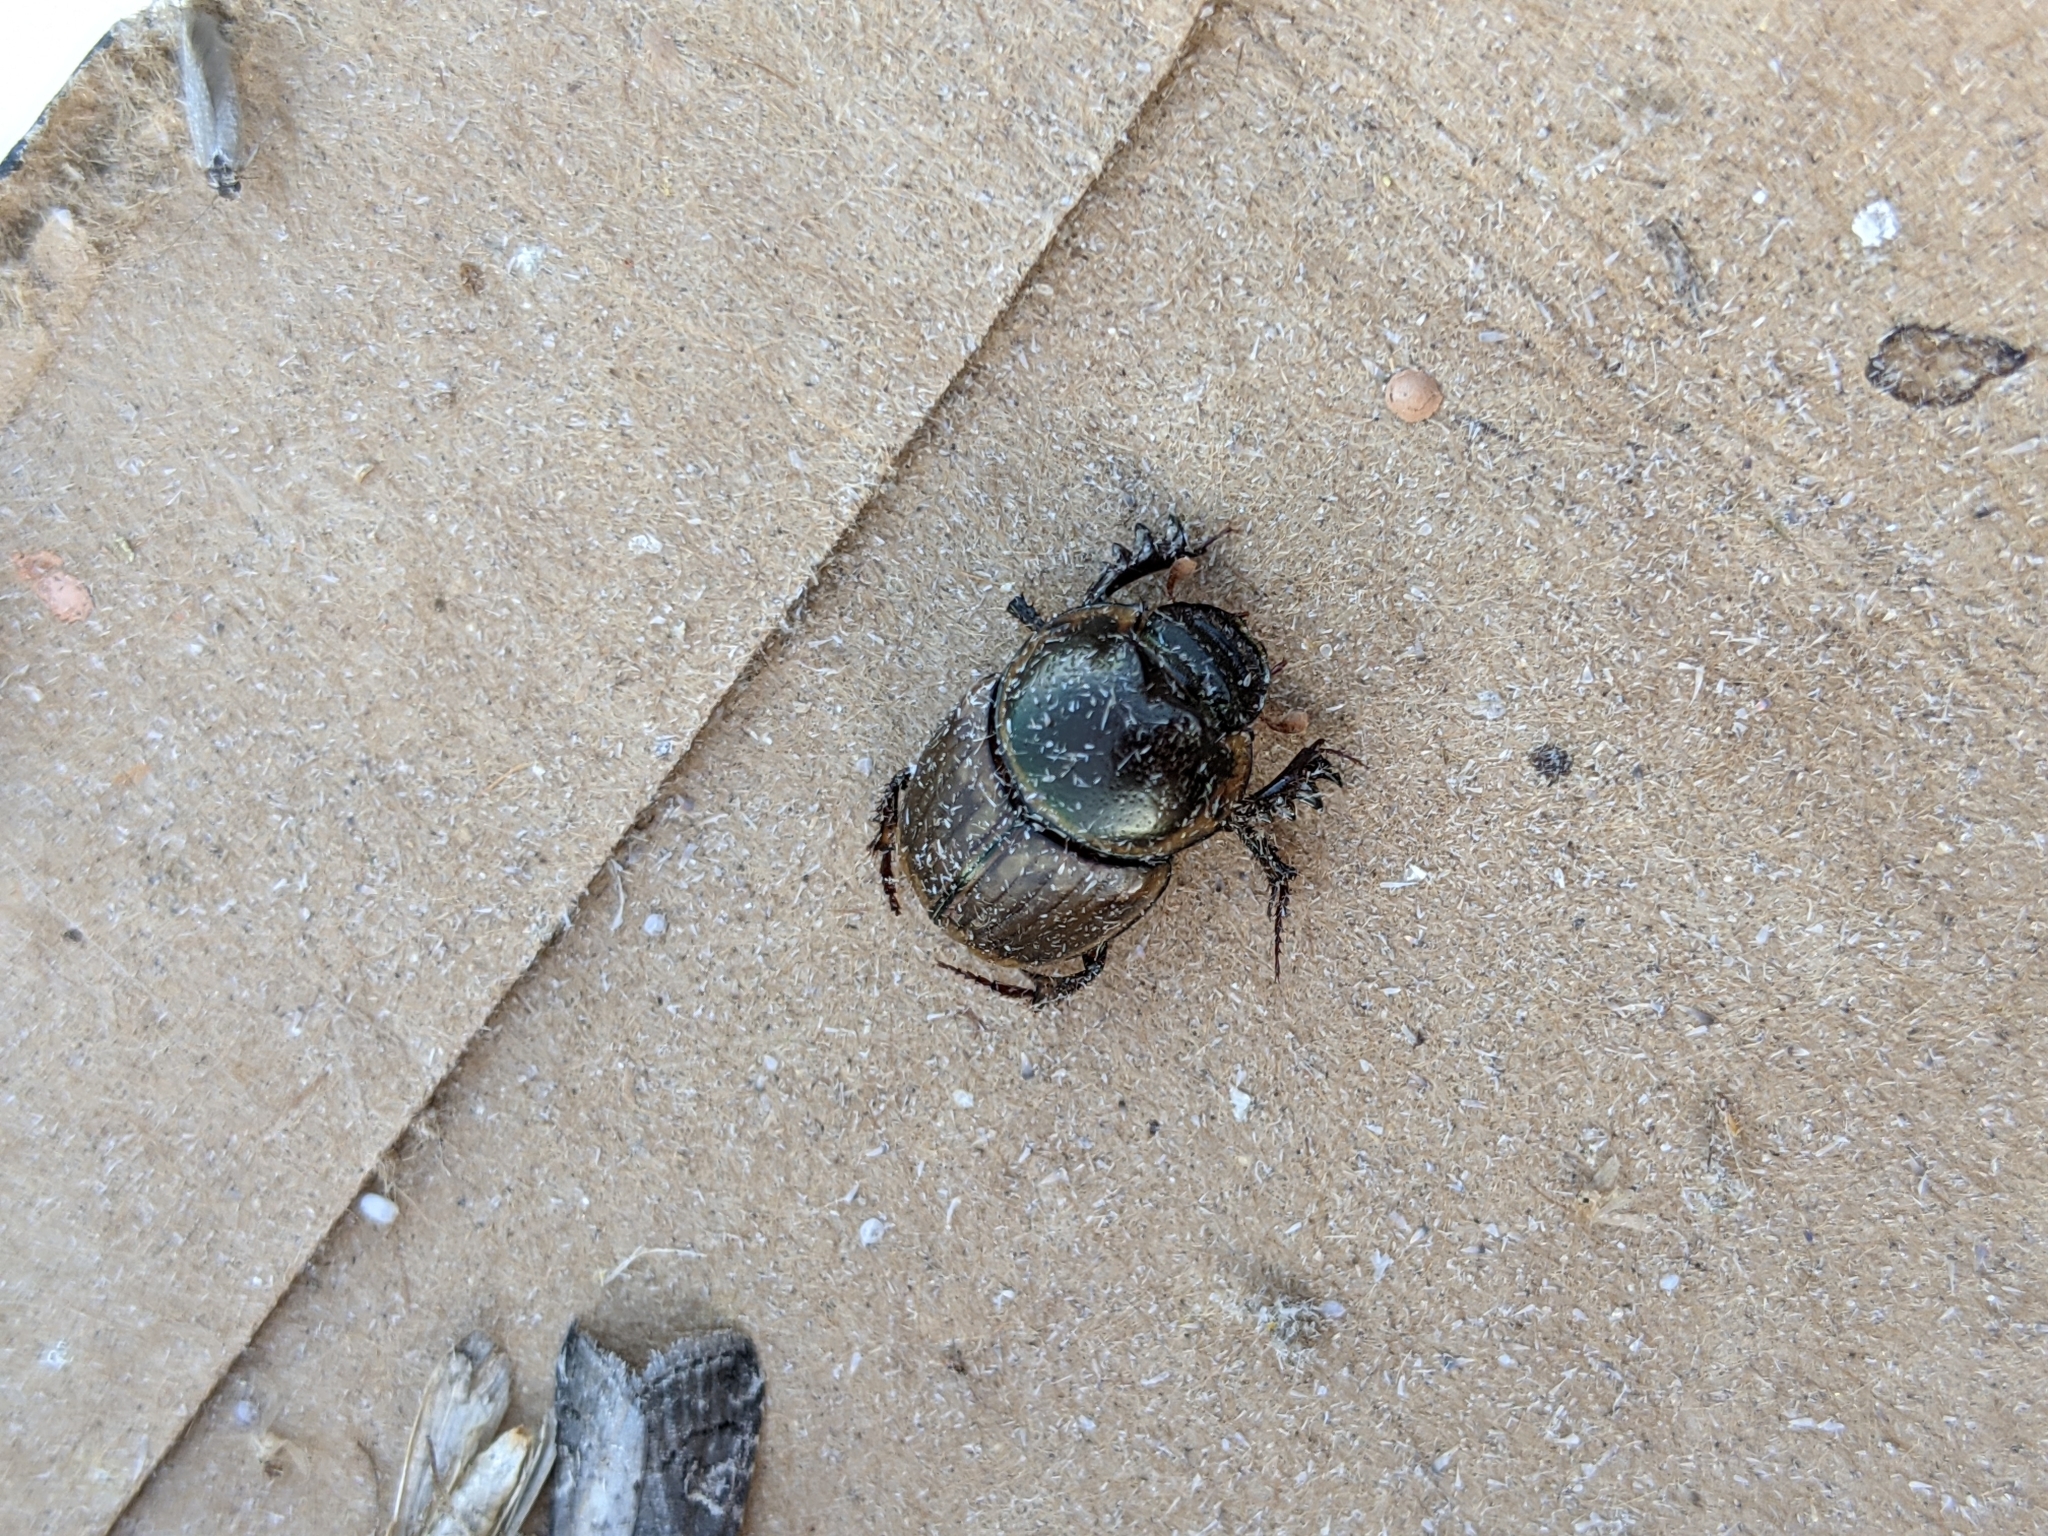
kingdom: Animalia
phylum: Arthropoda
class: Insecta
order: Coleoptera
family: Scarabaeidae
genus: Digitonthophagus
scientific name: Digitonthophagus gazella
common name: Brown dung beetle
